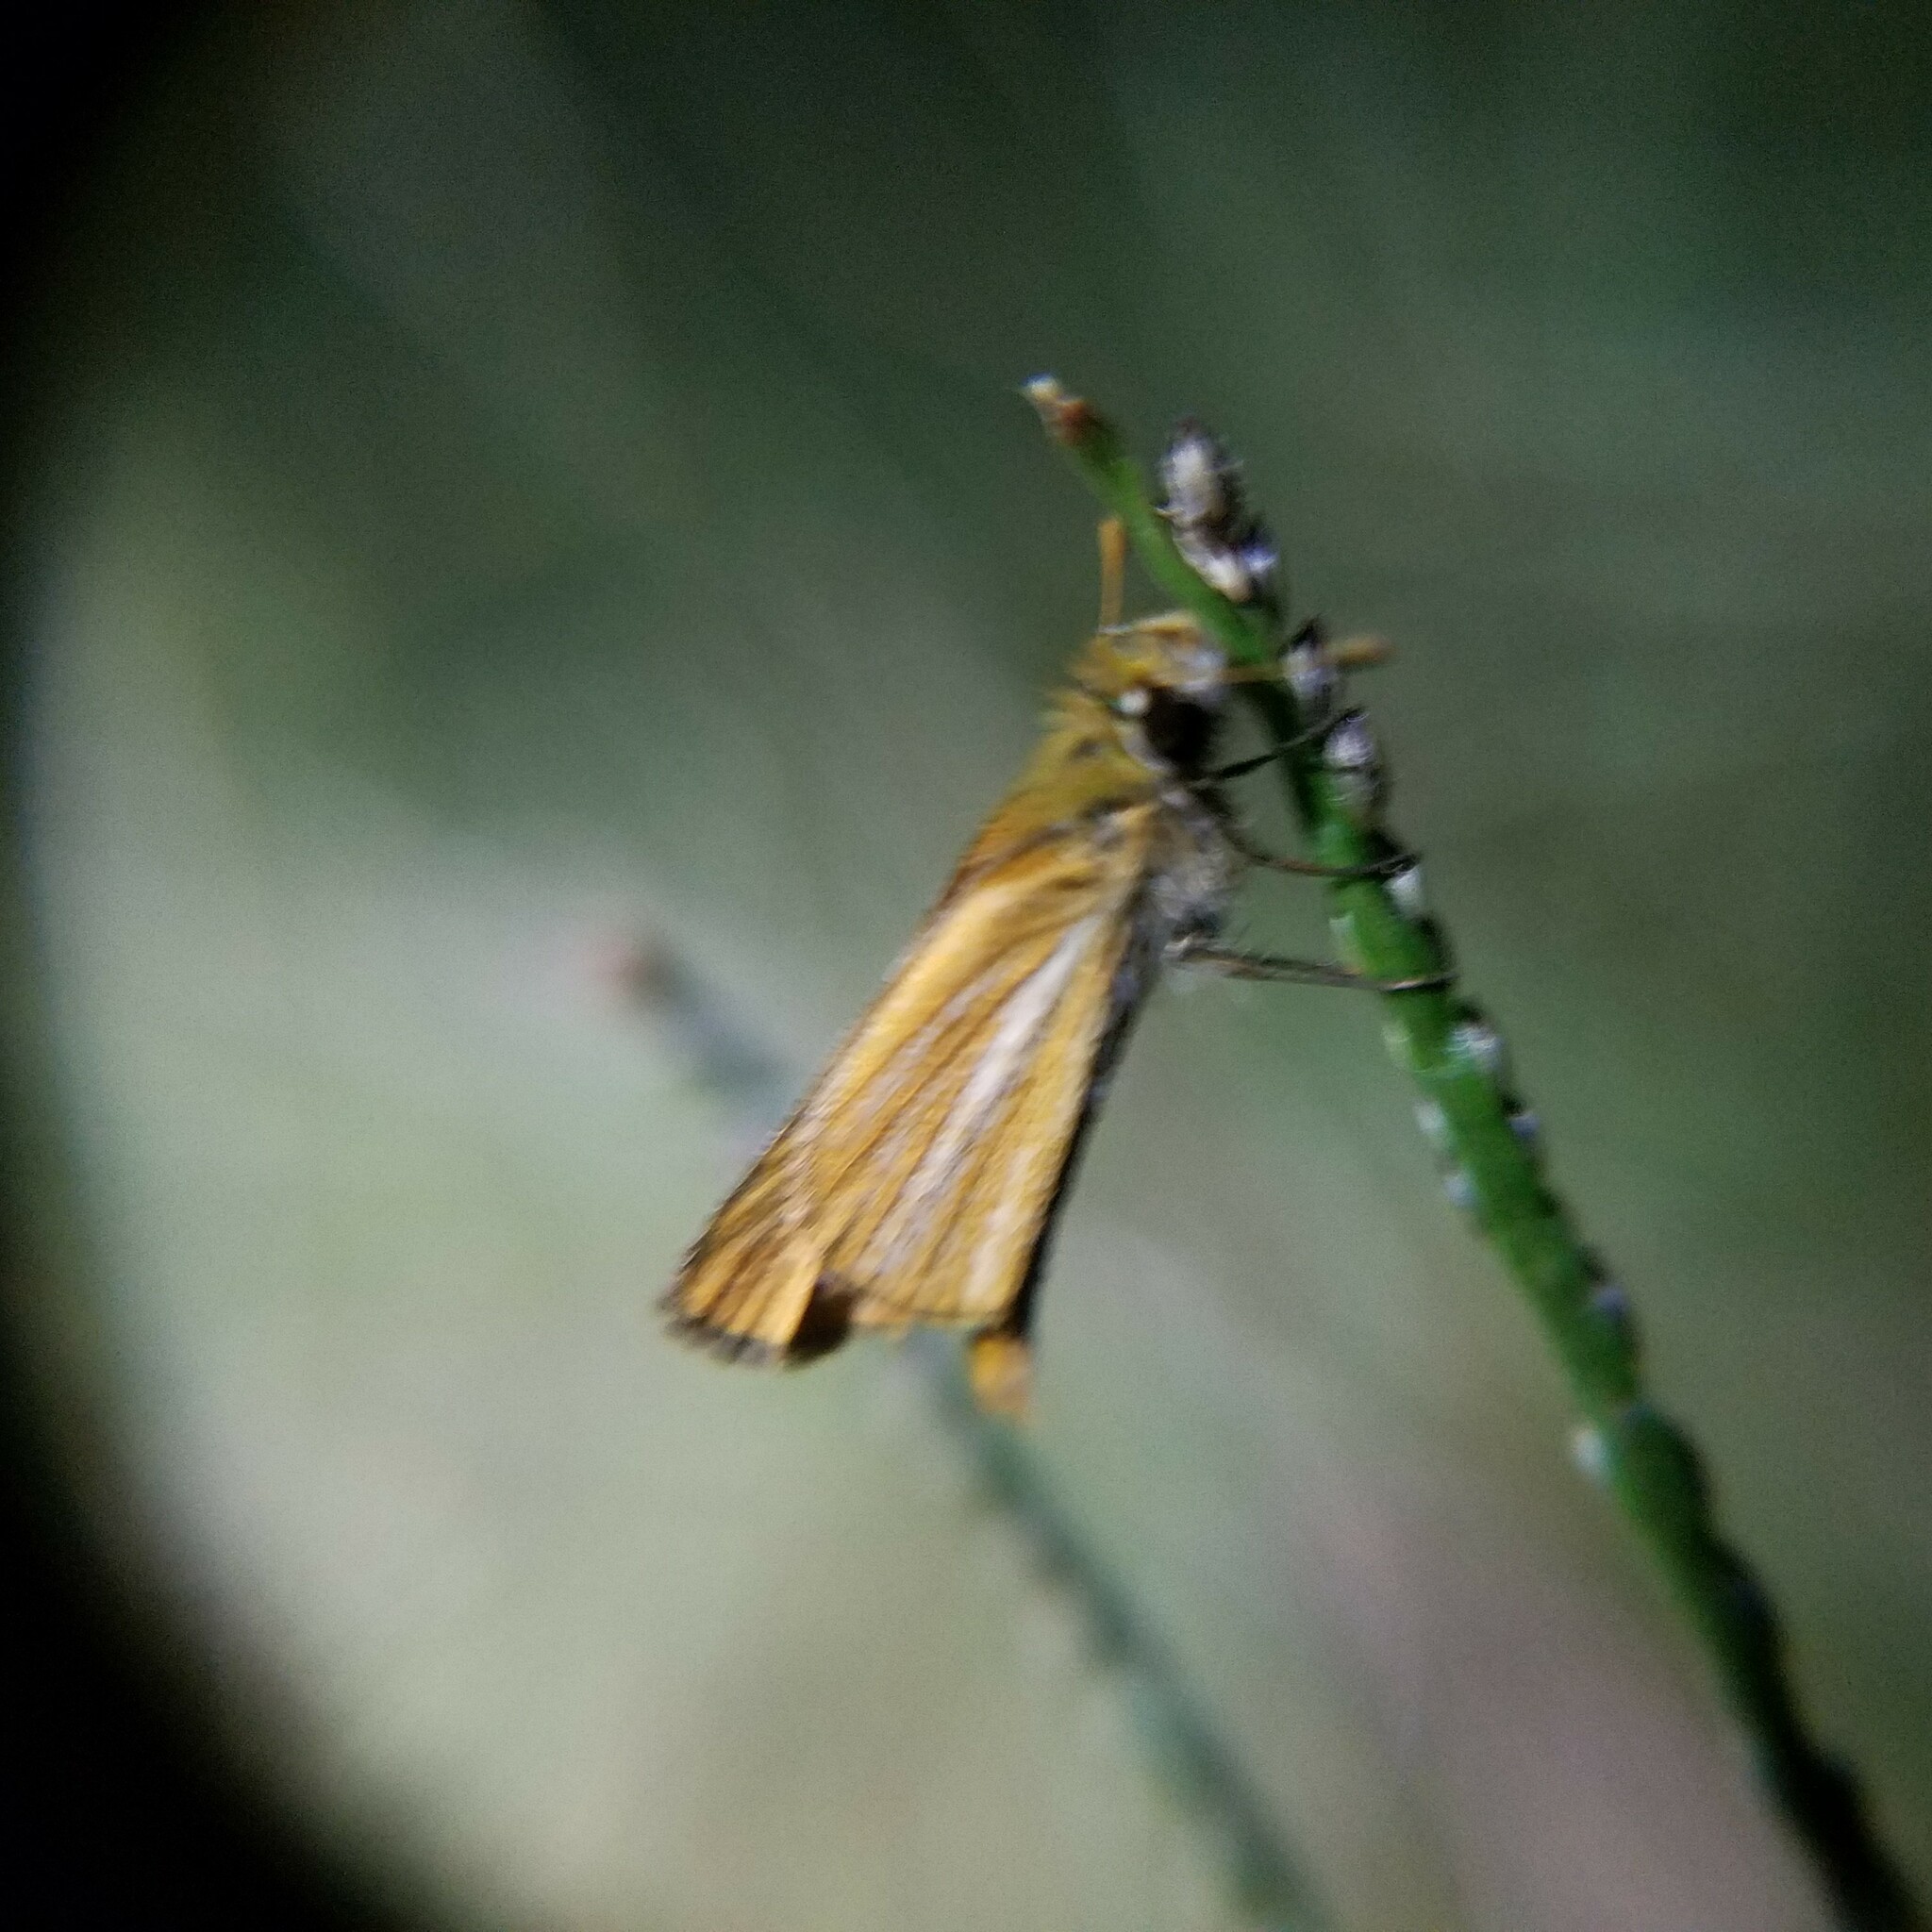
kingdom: Animalia
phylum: Arthropoda
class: Insecta
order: Lepidoptera
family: Hesperiidae
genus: Copaeodes
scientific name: Copaeodes minima
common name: Southern skipperling
